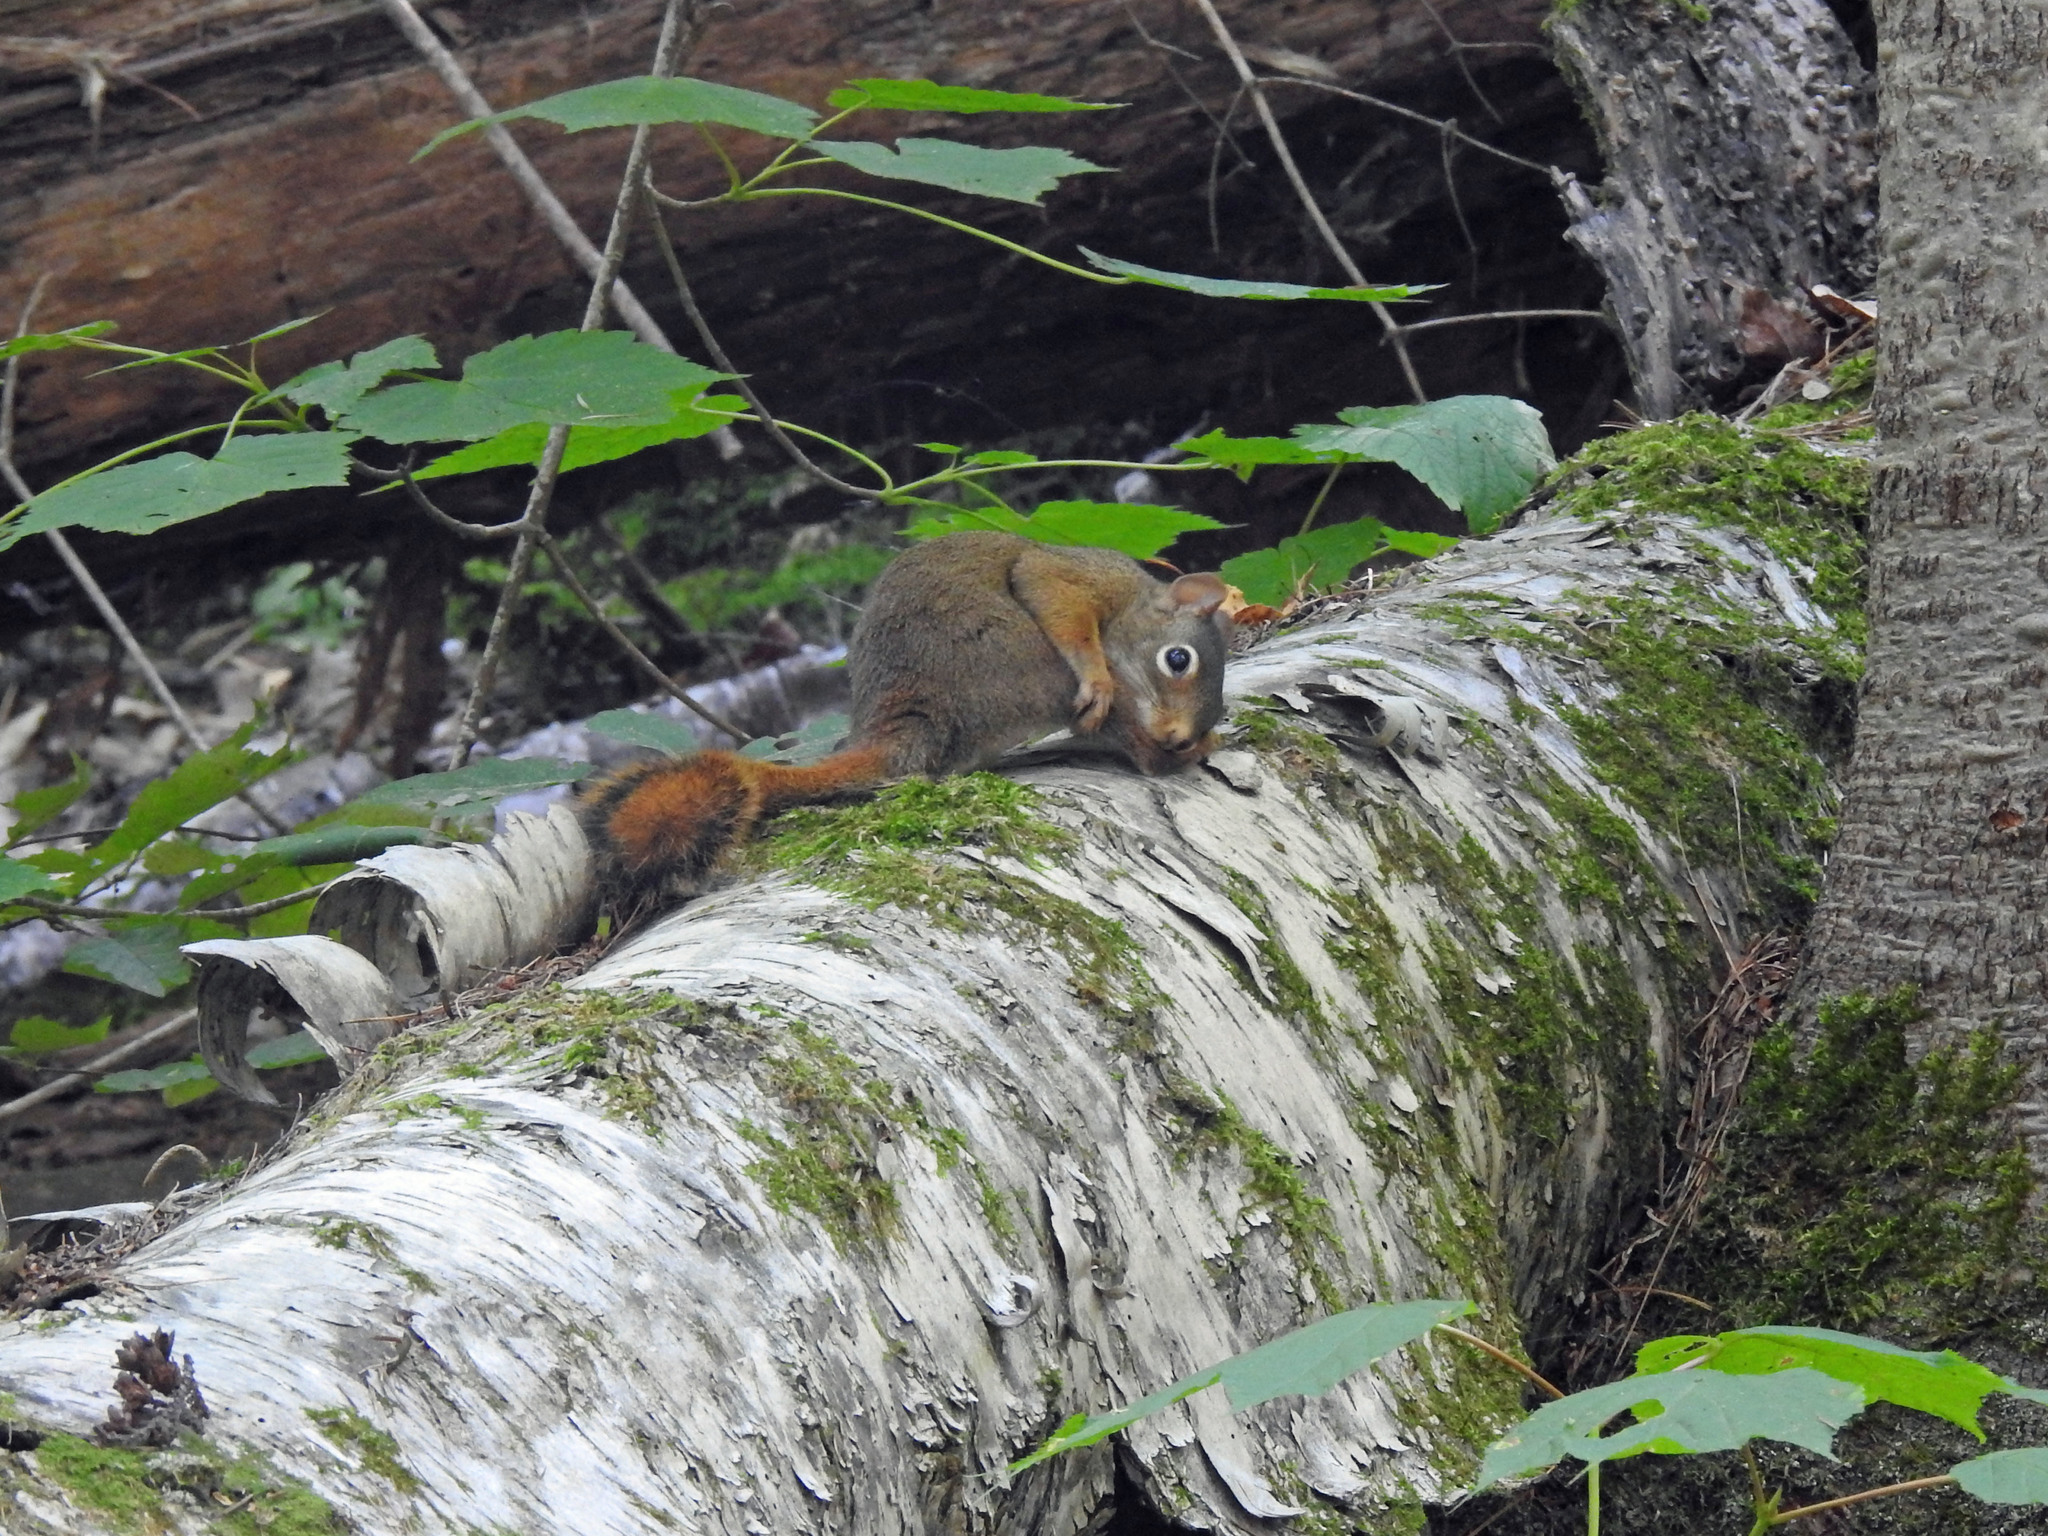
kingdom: Animalia
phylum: Chordata
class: Mammalia
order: Rodentia
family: Sciuridae
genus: Tamiasciurus
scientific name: Tamiasciurus hudsonicus
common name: Red squirrel
